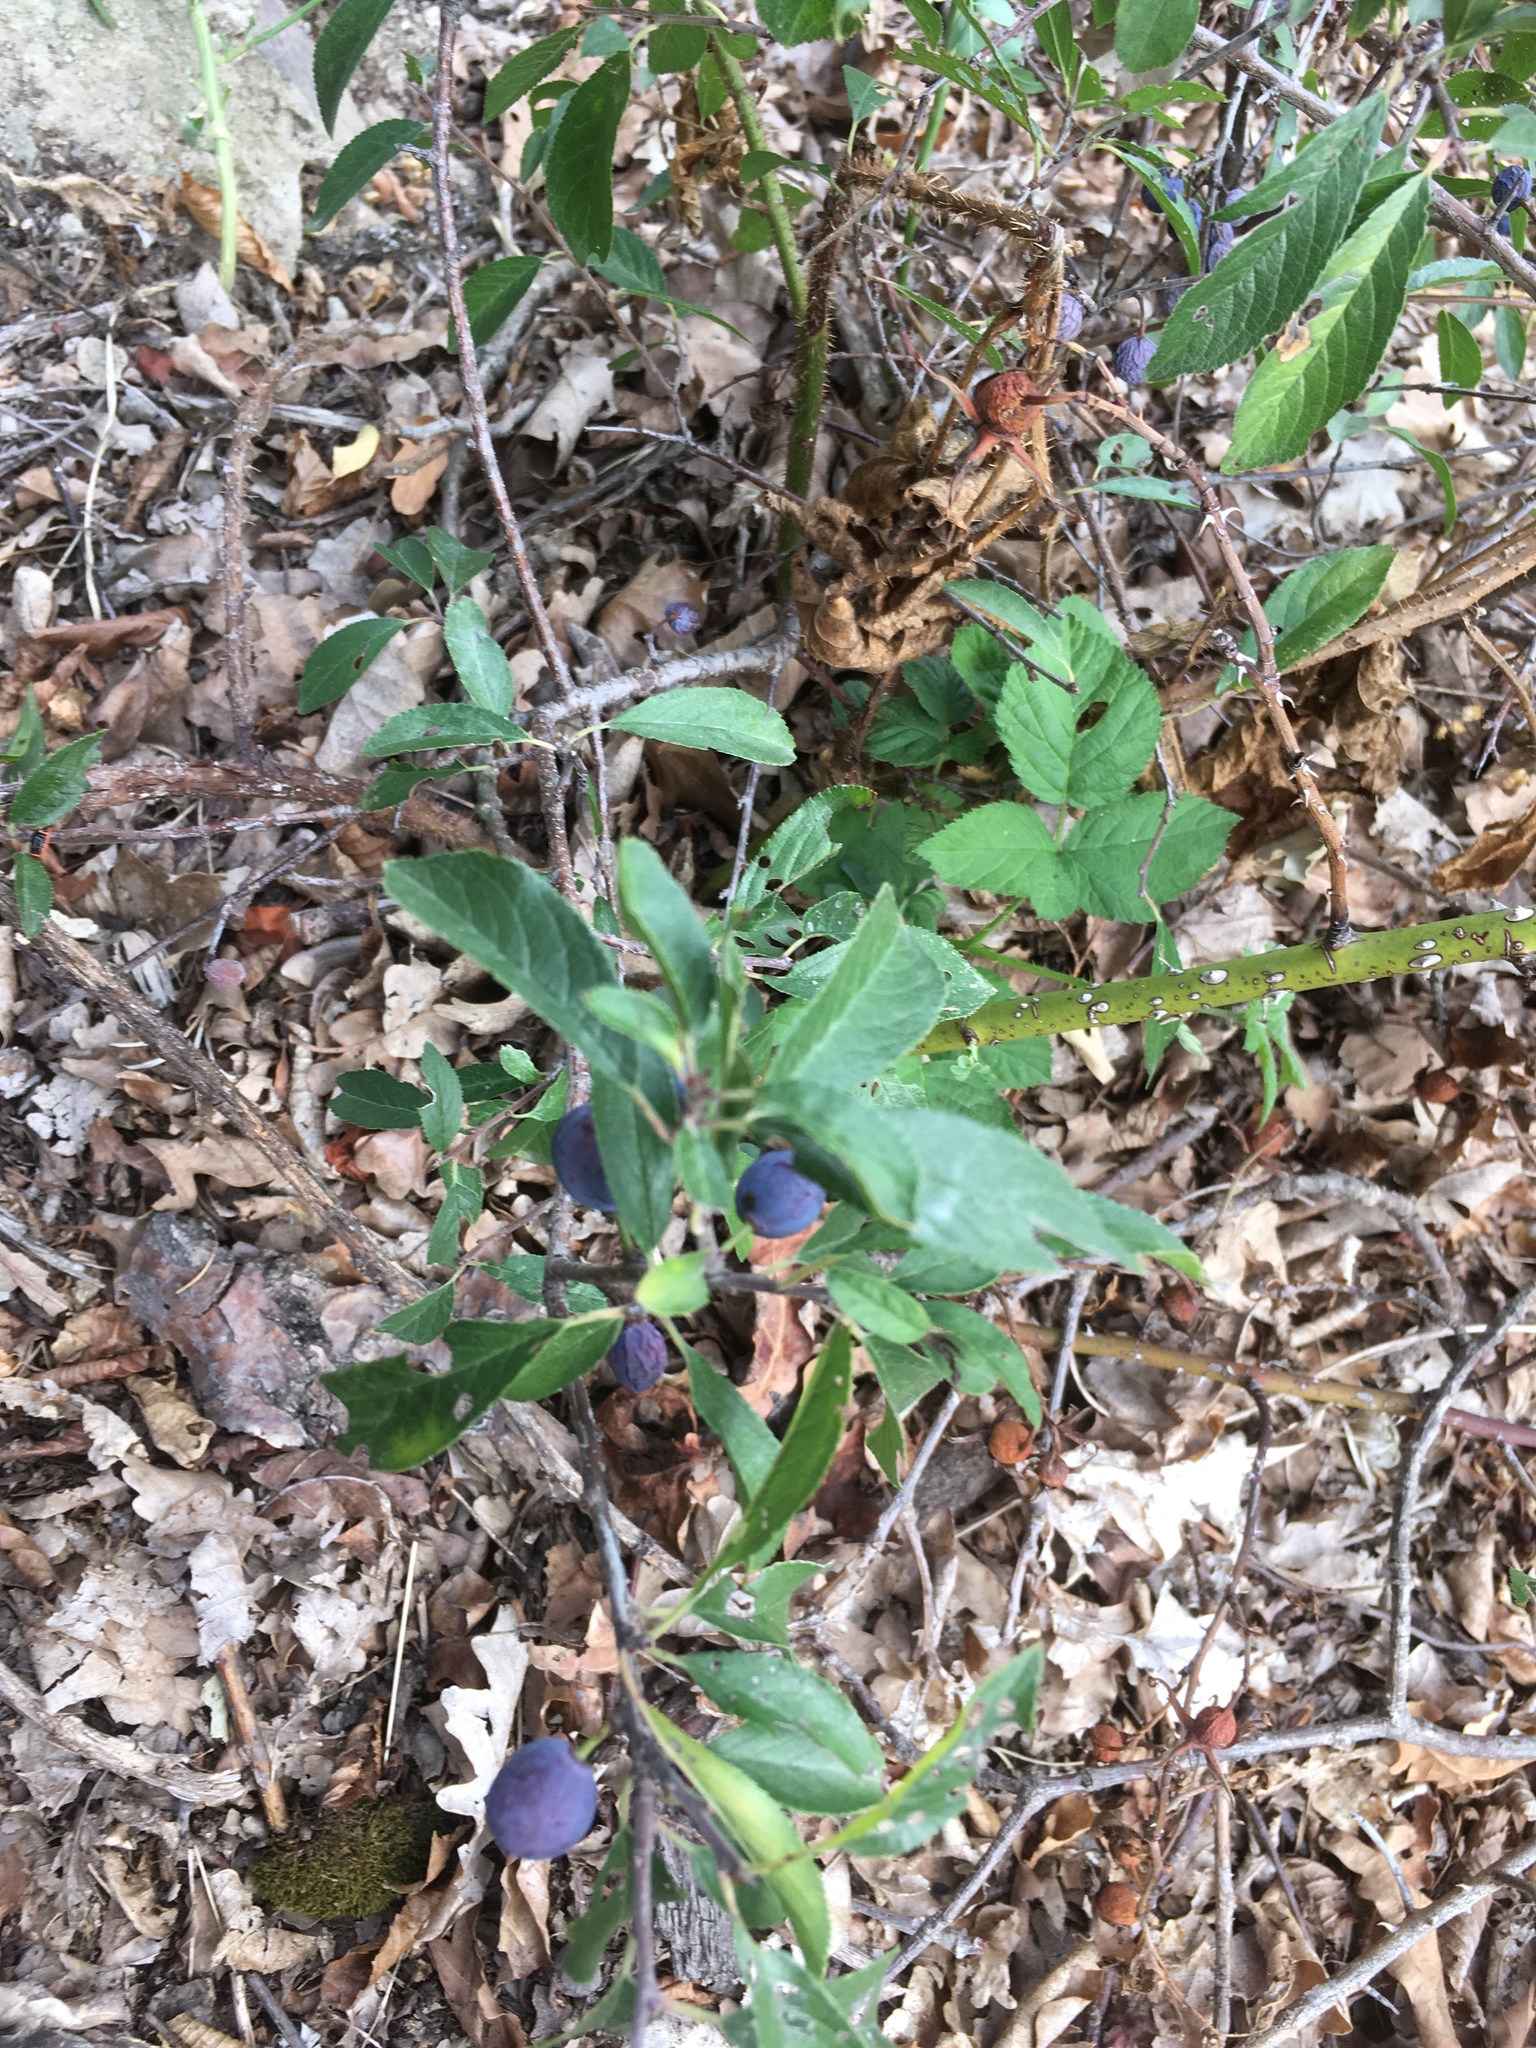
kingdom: Plantae
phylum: Tracheophyta
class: Magnoliopsida
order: Rosales
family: Rosaceae
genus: Prunus
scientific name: Prunus spinosa
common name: Blackthorn
